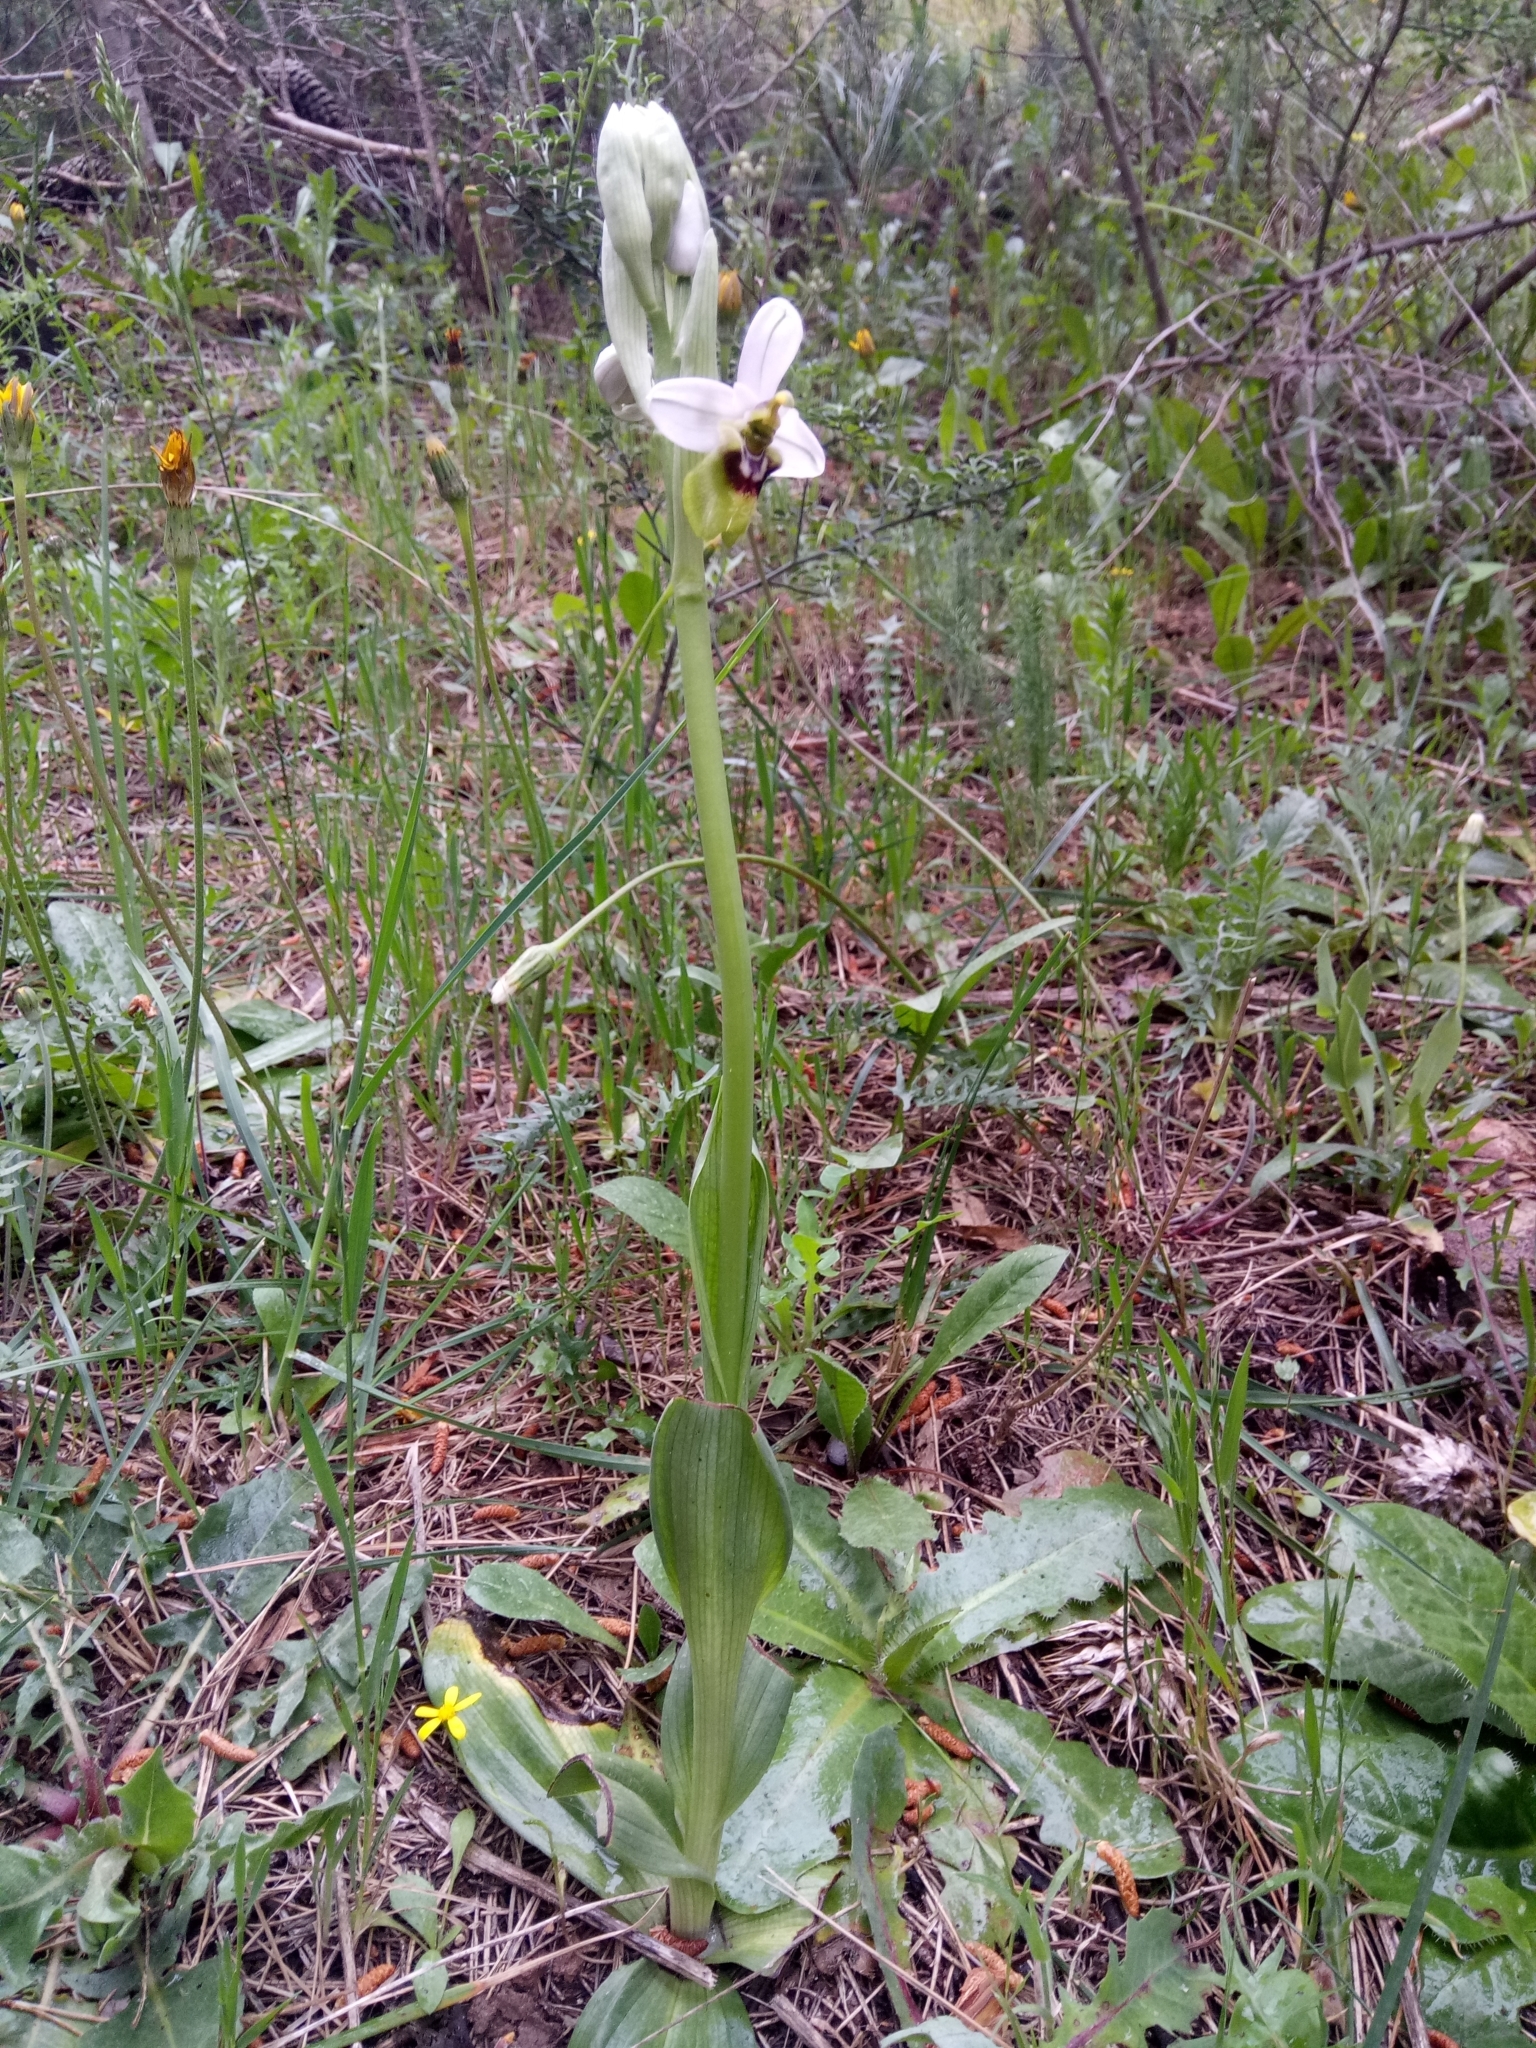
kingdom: Plantae
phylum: Tracheophyta
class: Liliopsida
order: Asparagales
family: Orchidaceae
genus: Ophrys
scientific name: Ophrys tenthredinifera
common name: Sawfly orchid
